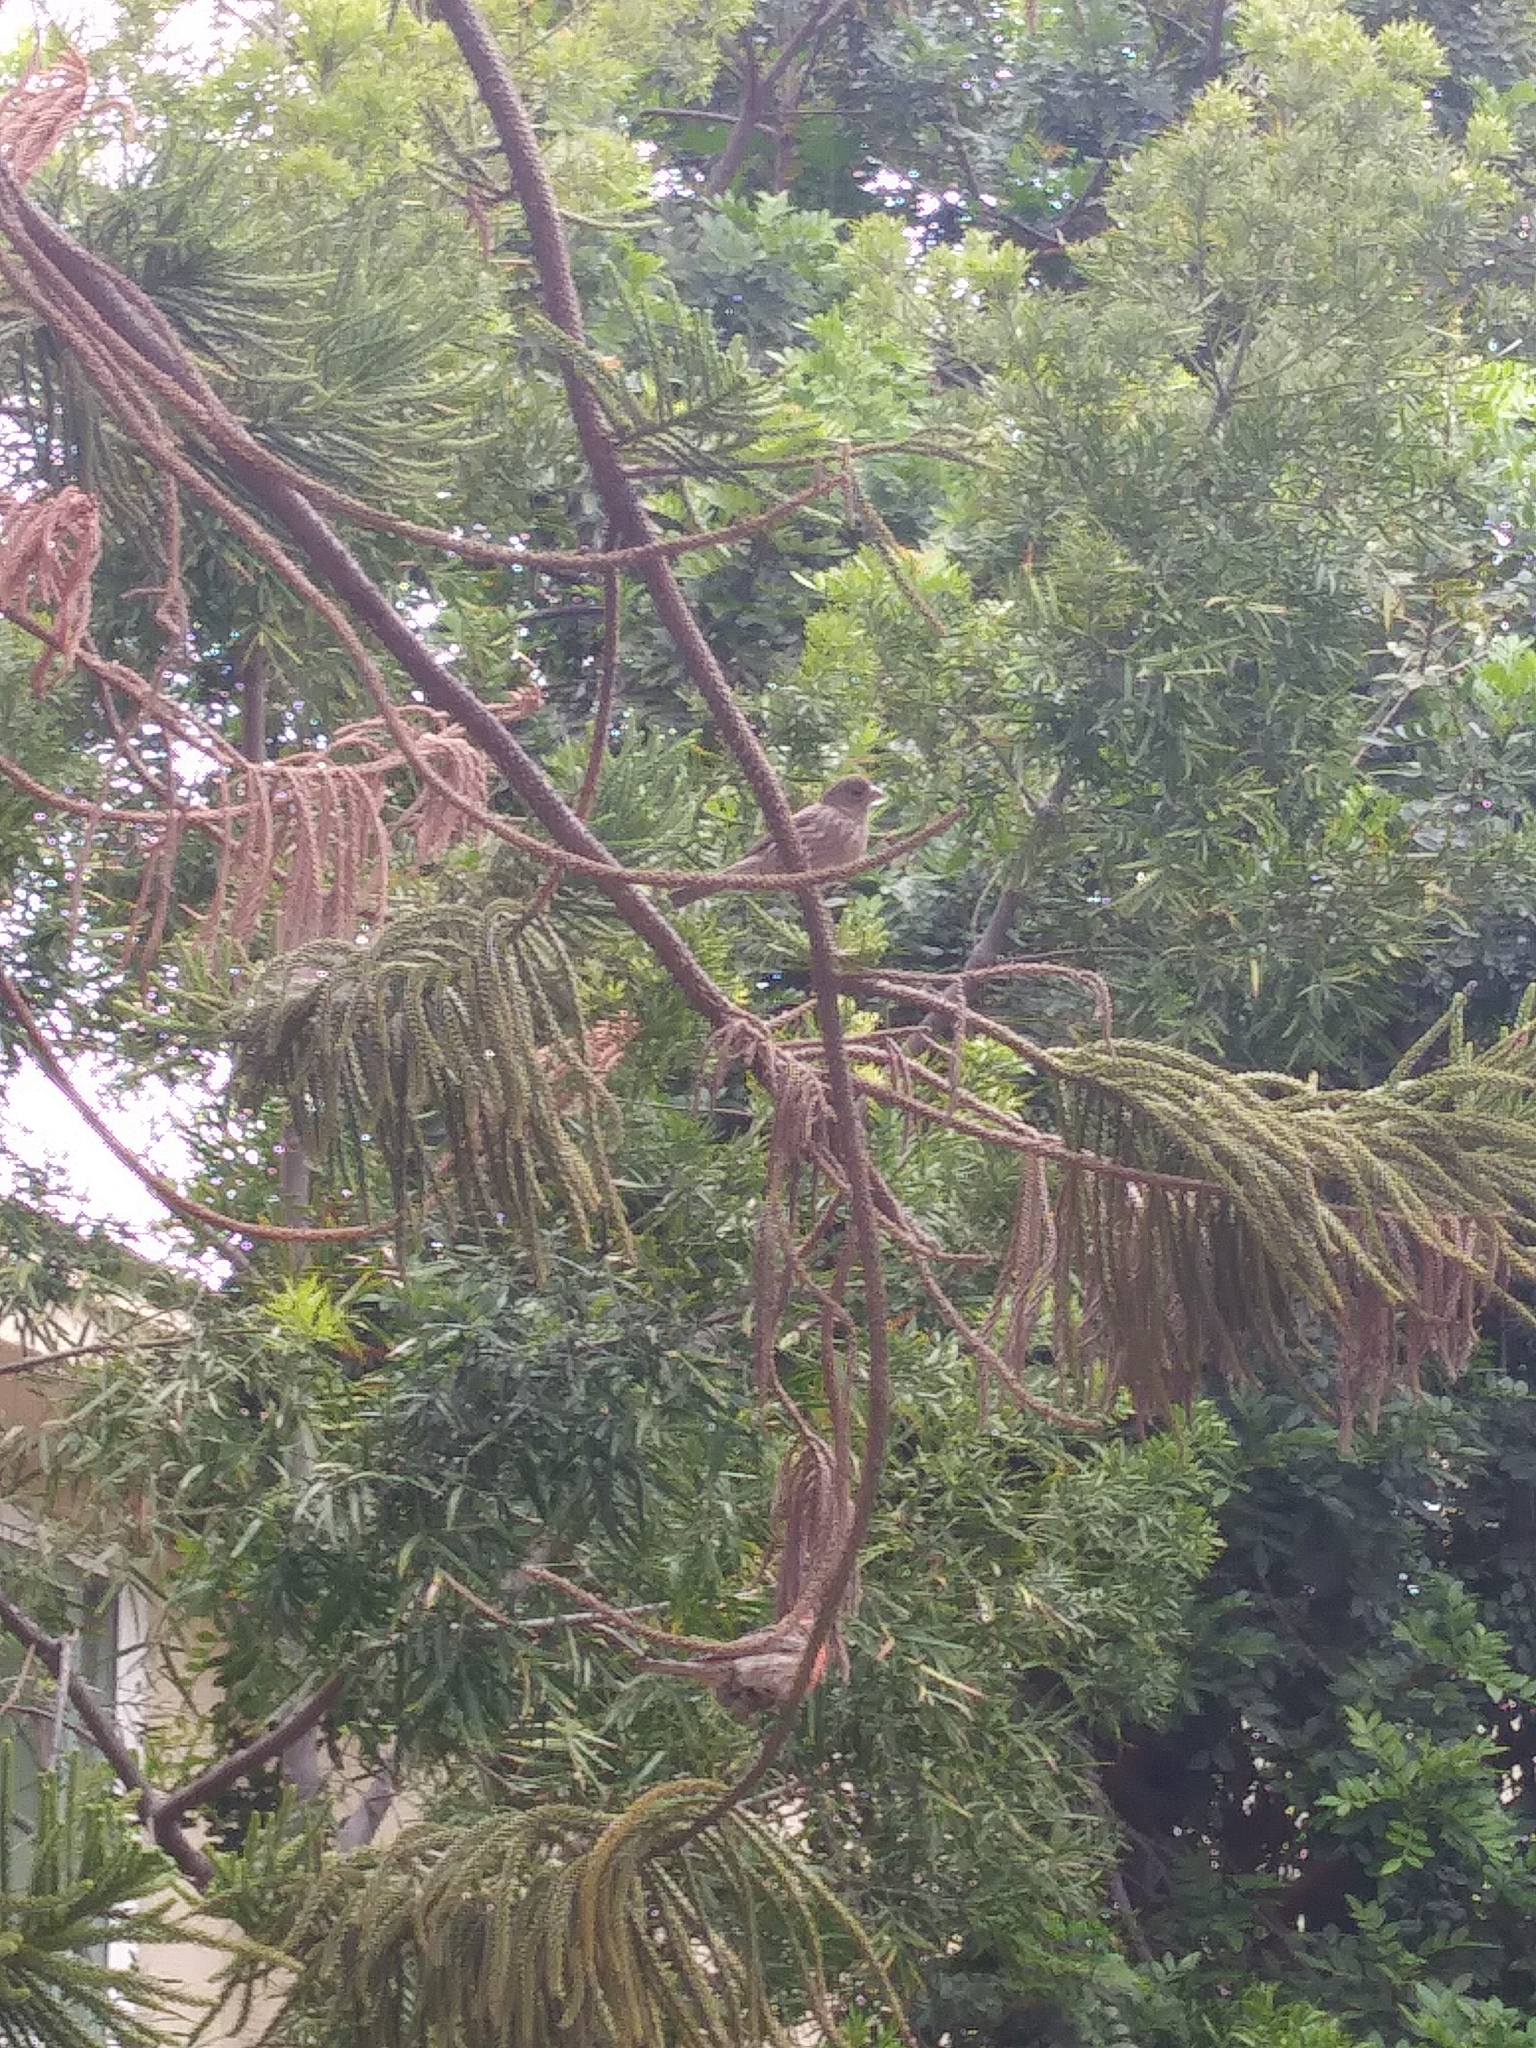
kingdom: Animalia
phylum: Chordata
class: Aves
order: Passeriformes
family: Fringillidae
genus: Haemorhous
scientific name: Haemorhous mexicanus
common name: House finch
